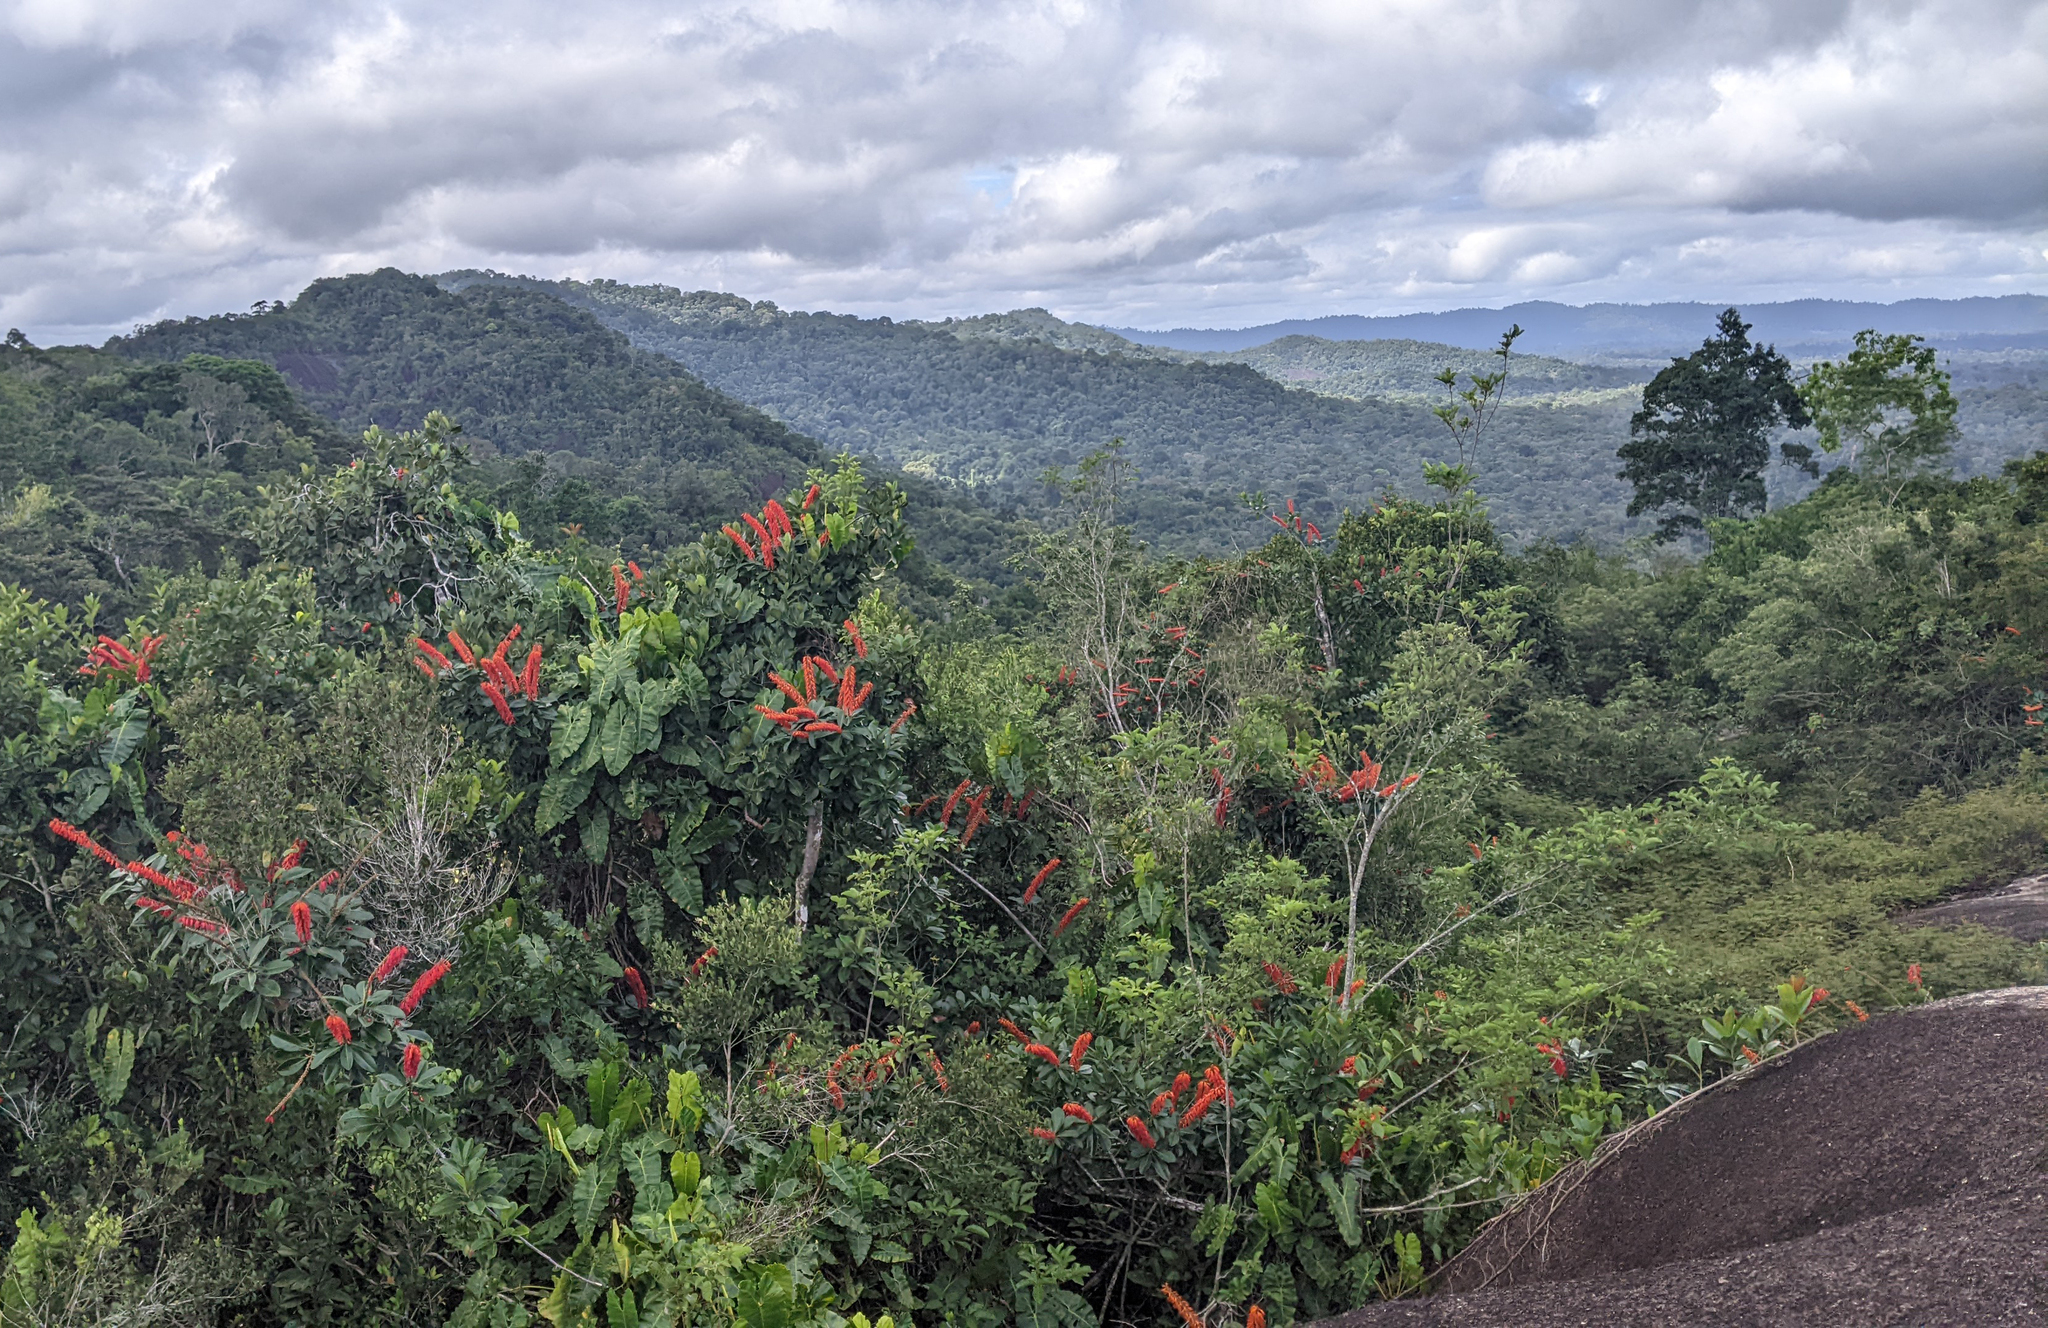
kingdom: Plantae
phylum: Tracheophyta
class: Magnoliopsida
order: Ericales
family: Marcgraviaceae
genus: Norantea
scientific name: Norantea guianensis
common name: Red hot poker vine
